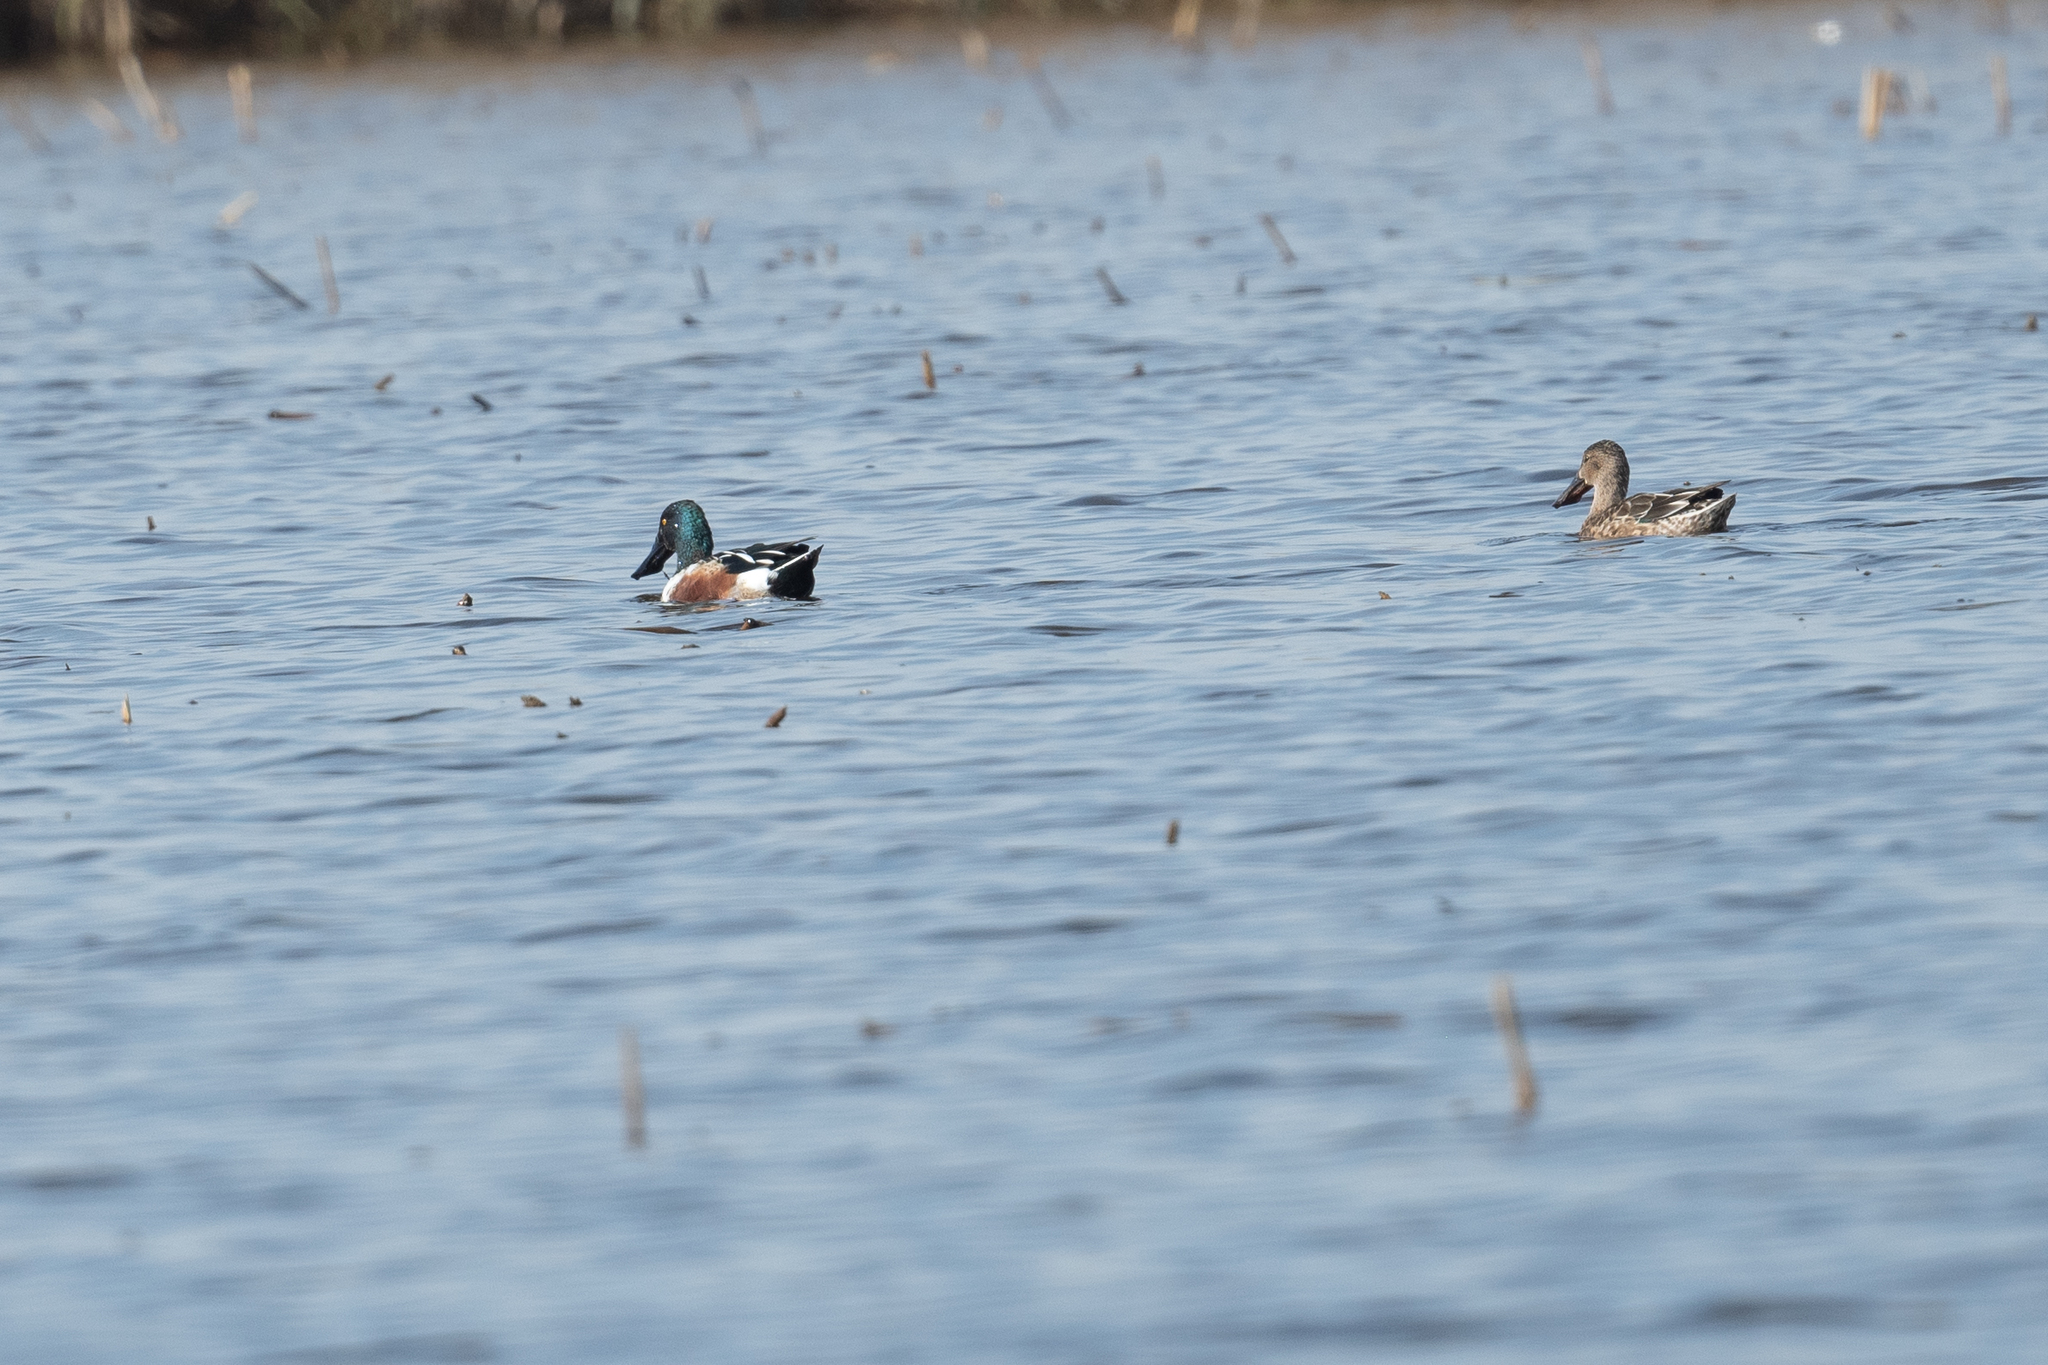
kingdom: Animalia
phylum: Chordata
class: Aves
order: Anseriformes
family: Anatidae
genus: Spatula
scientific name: Spatula clypeata
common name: Northern shoveler
